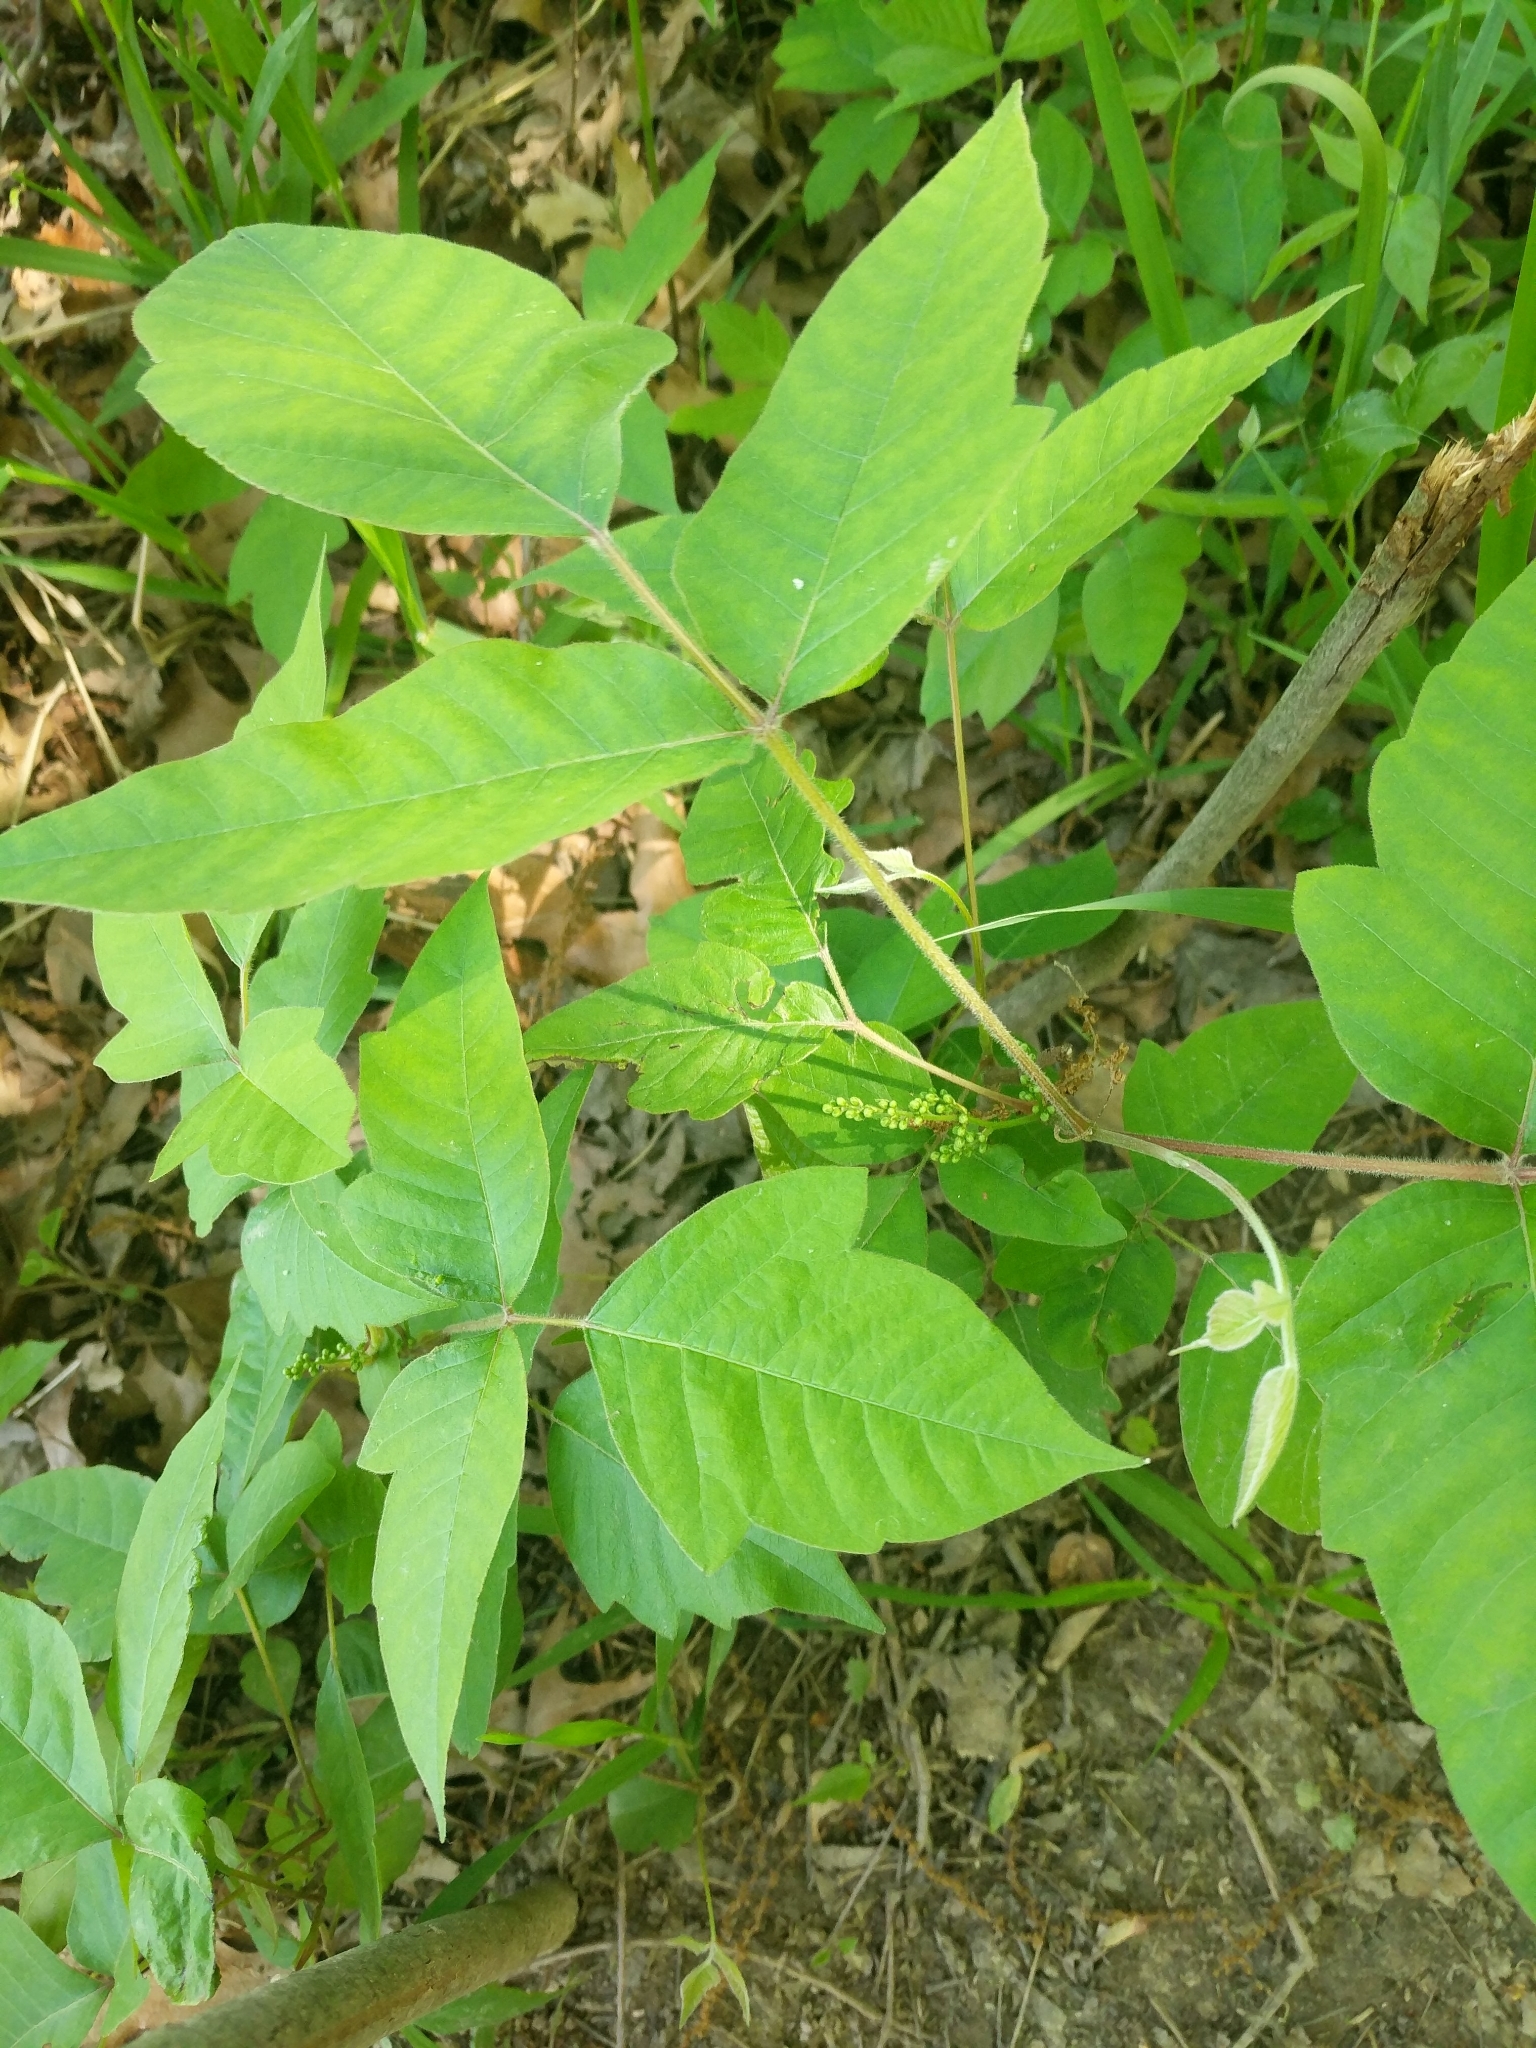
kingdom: Plantae
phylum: Tracheophyta
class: Magnoliopsida
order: Sapindales
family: Anacardiaceae
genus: Toxicodendron
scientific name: Toxicodendron radicans
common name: Poison ivy
